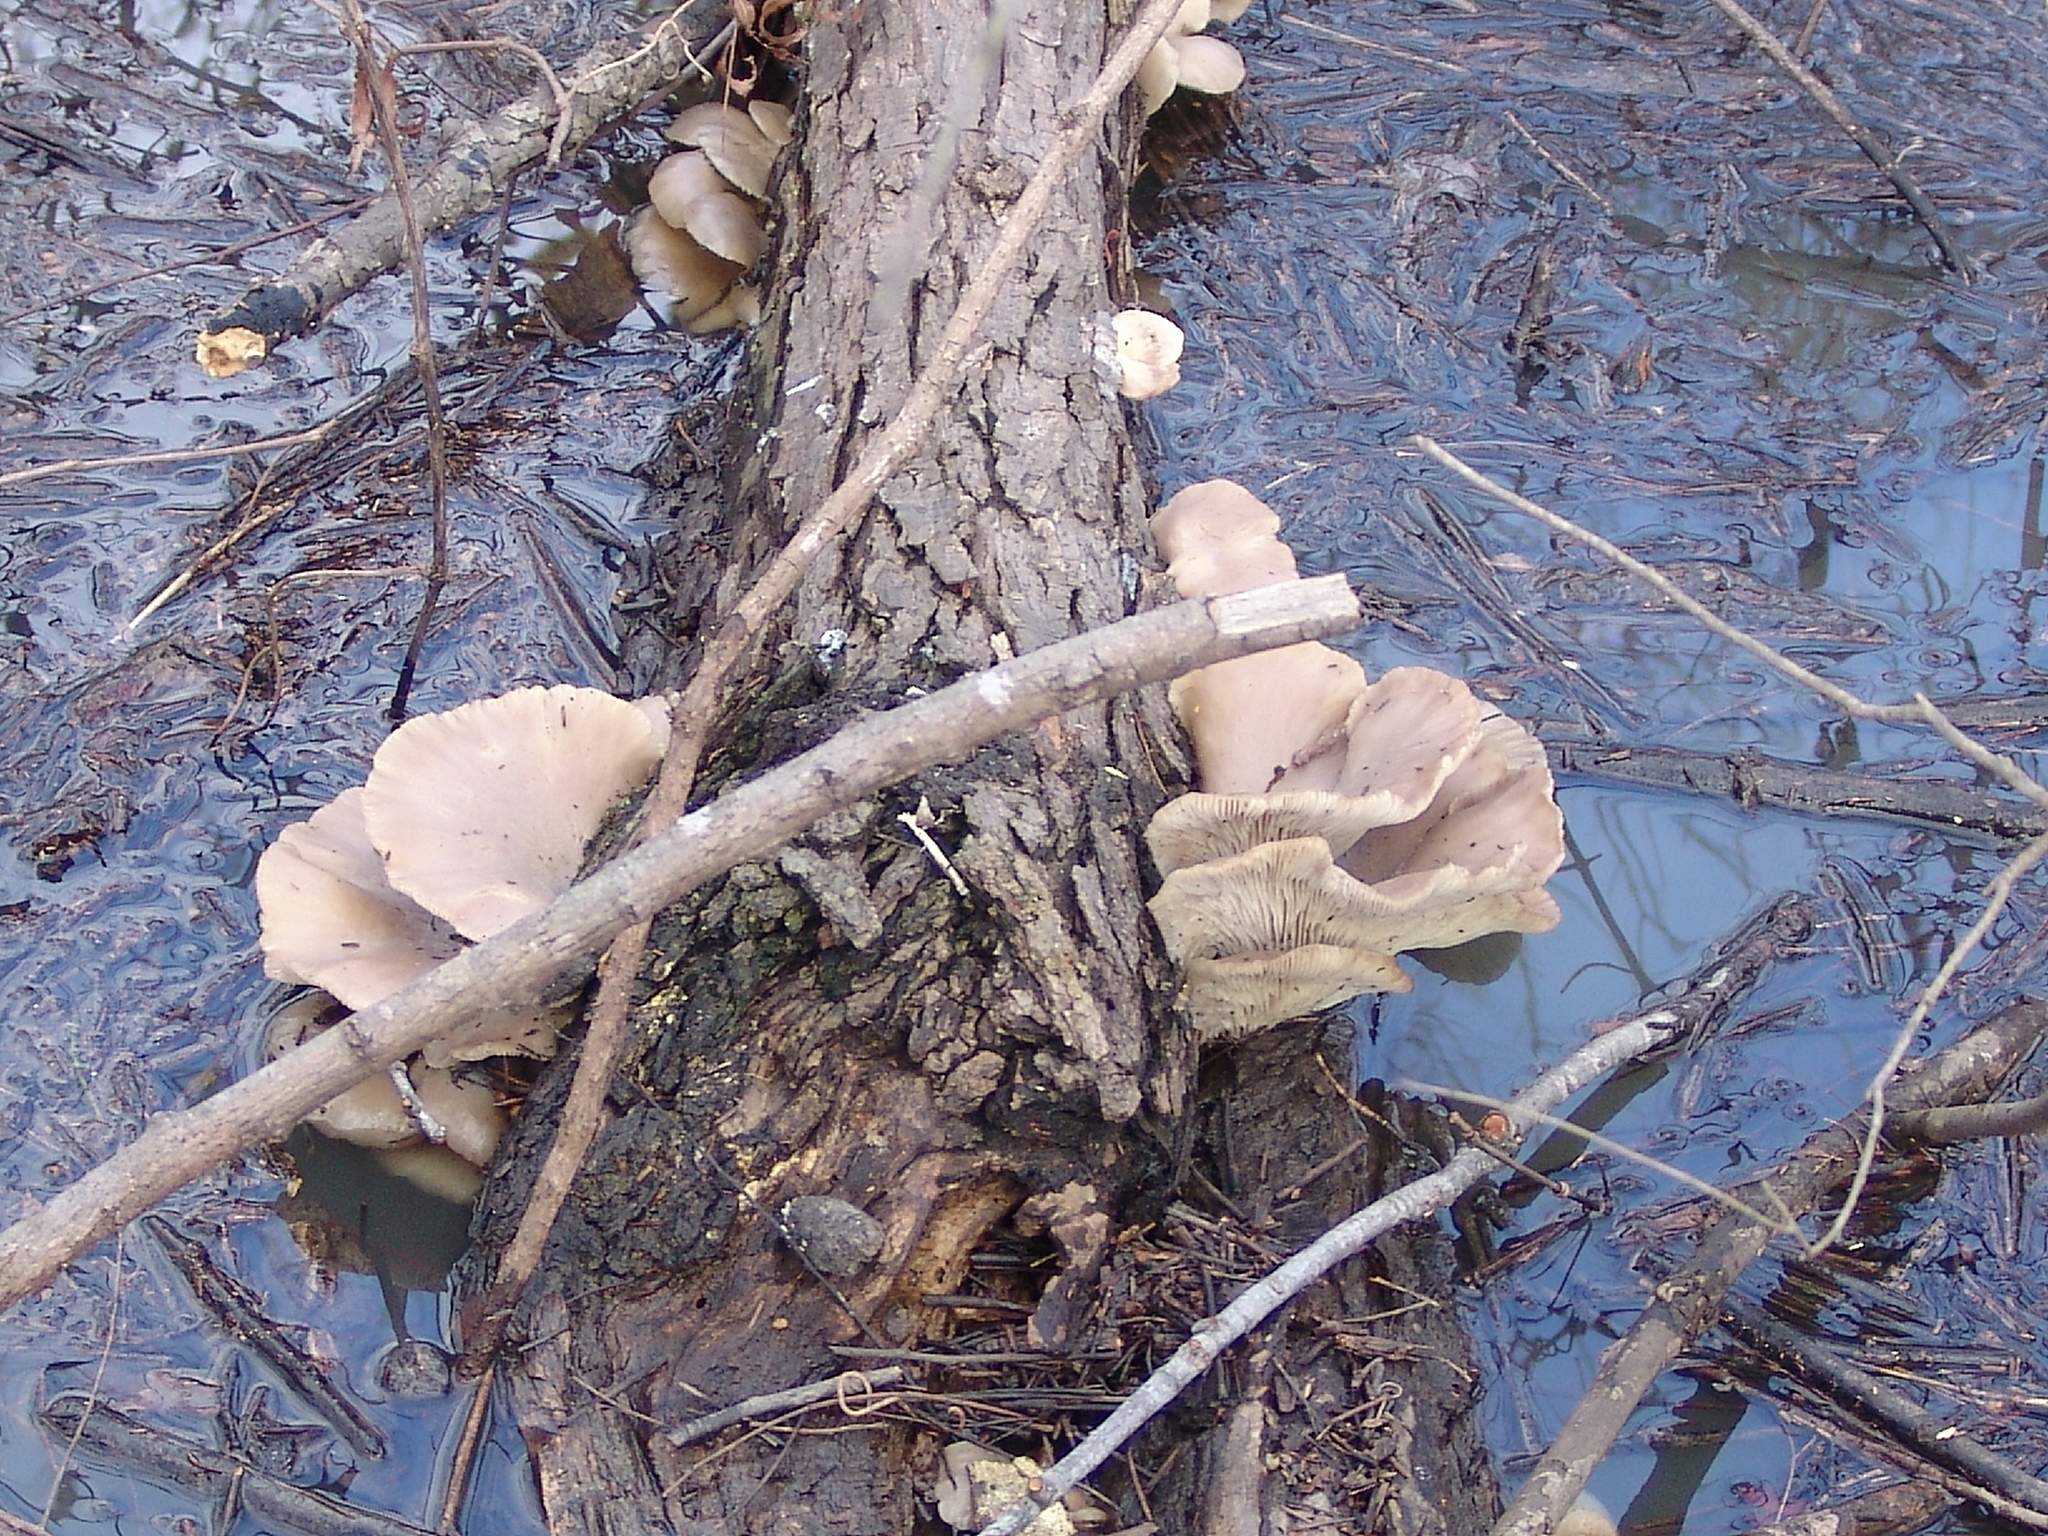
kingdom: Fungi
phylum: Basidiomycota
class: Agaricomycetes
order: Agaricales
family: Pleurotaceae
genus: Pleurotus
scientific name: Pleurotus ostreatus
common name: Oyster mushroom
